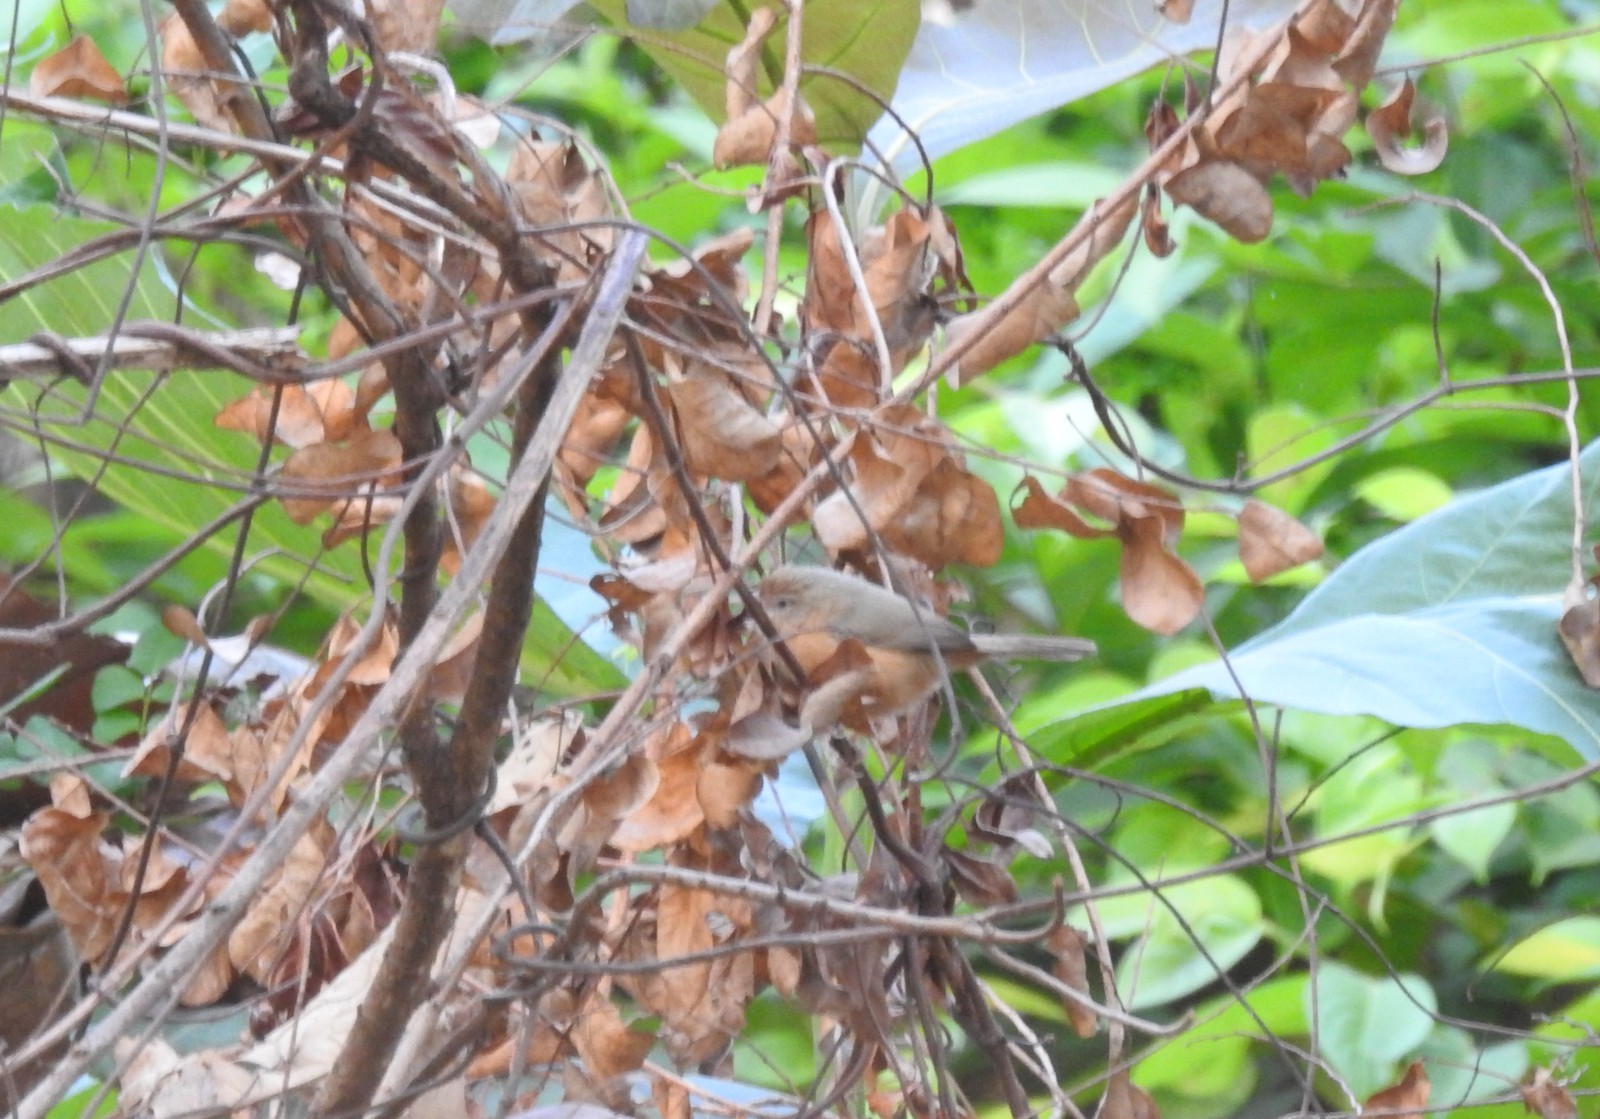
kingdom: Animalia
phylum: Chordata
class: Aves
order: Passeriformes
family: Timaliidae
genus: Dumetia
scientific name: Dumetia hyperythra
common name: Tawny-bellied babbler
